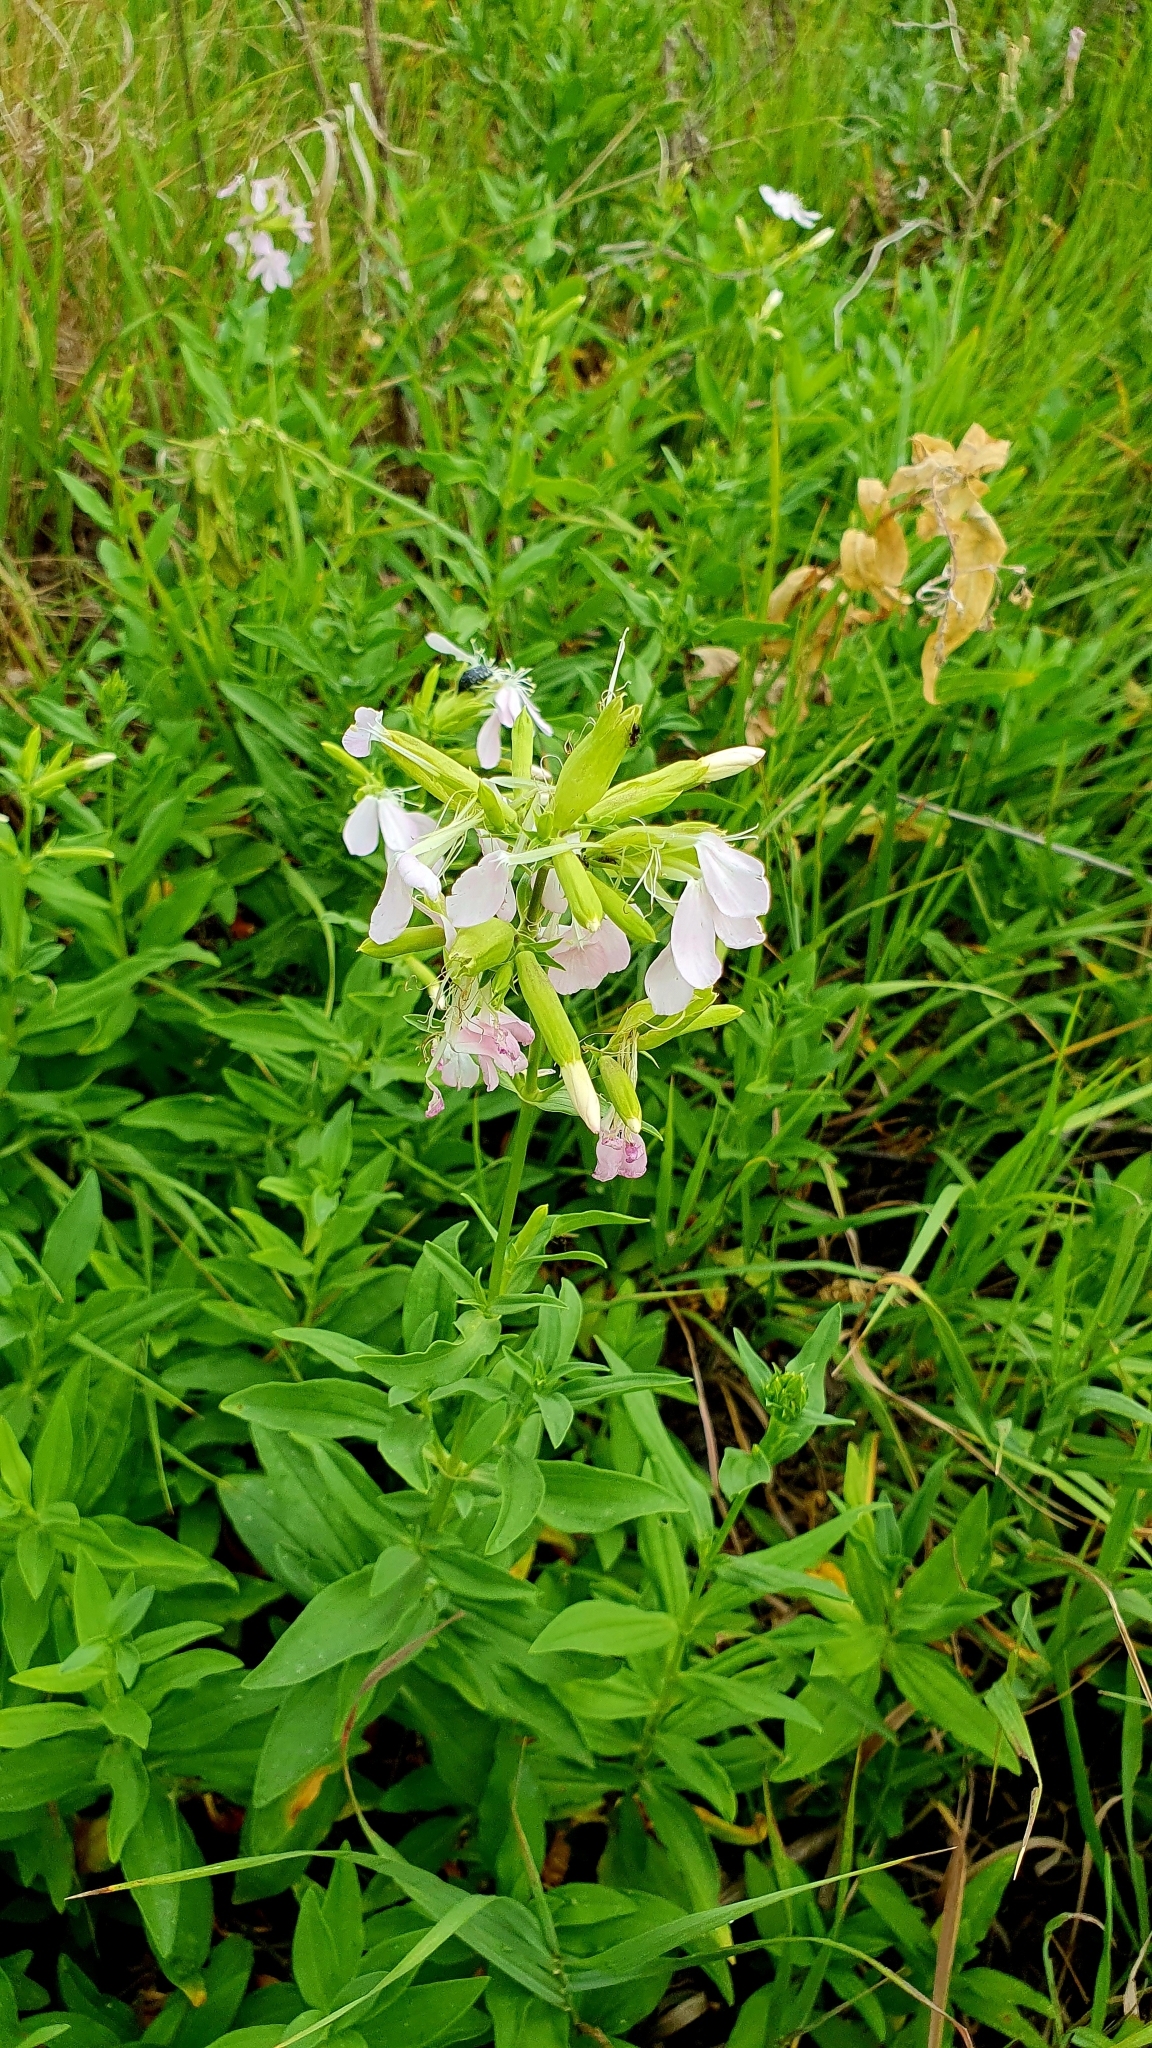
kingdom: Plantae
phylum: Tracheophyta
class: Magnoliopsida
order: Caryophyllales
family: Caryophyllaceae
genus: Saponaria
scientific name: Saponaria officinalis
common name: Soapwort
